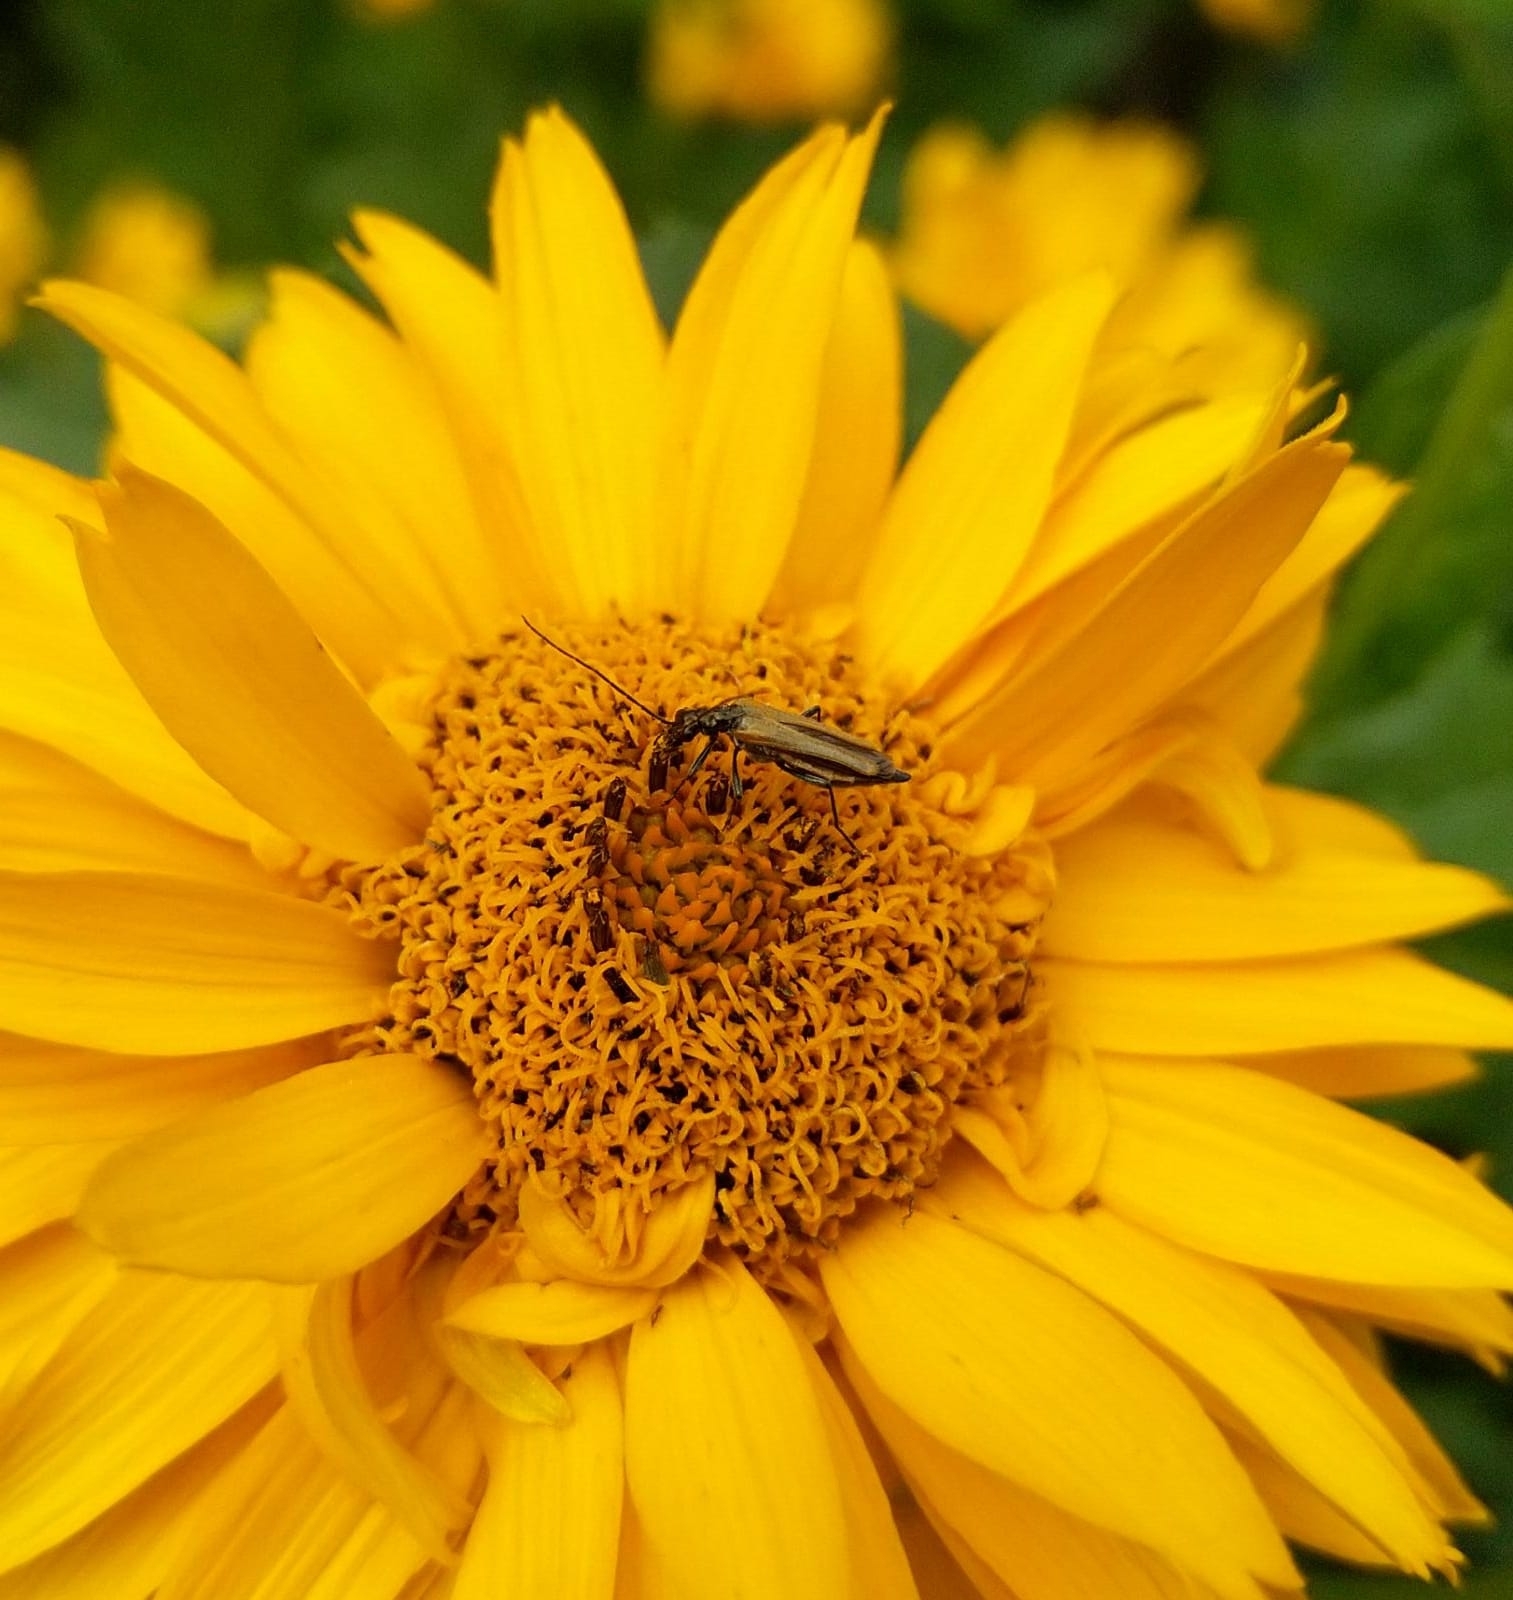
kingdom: Animalia
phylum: Arthropoda
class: Insecta
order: Coleoptera
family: Oedemeridae
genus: Oedemera
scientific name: Oedemera femorata
